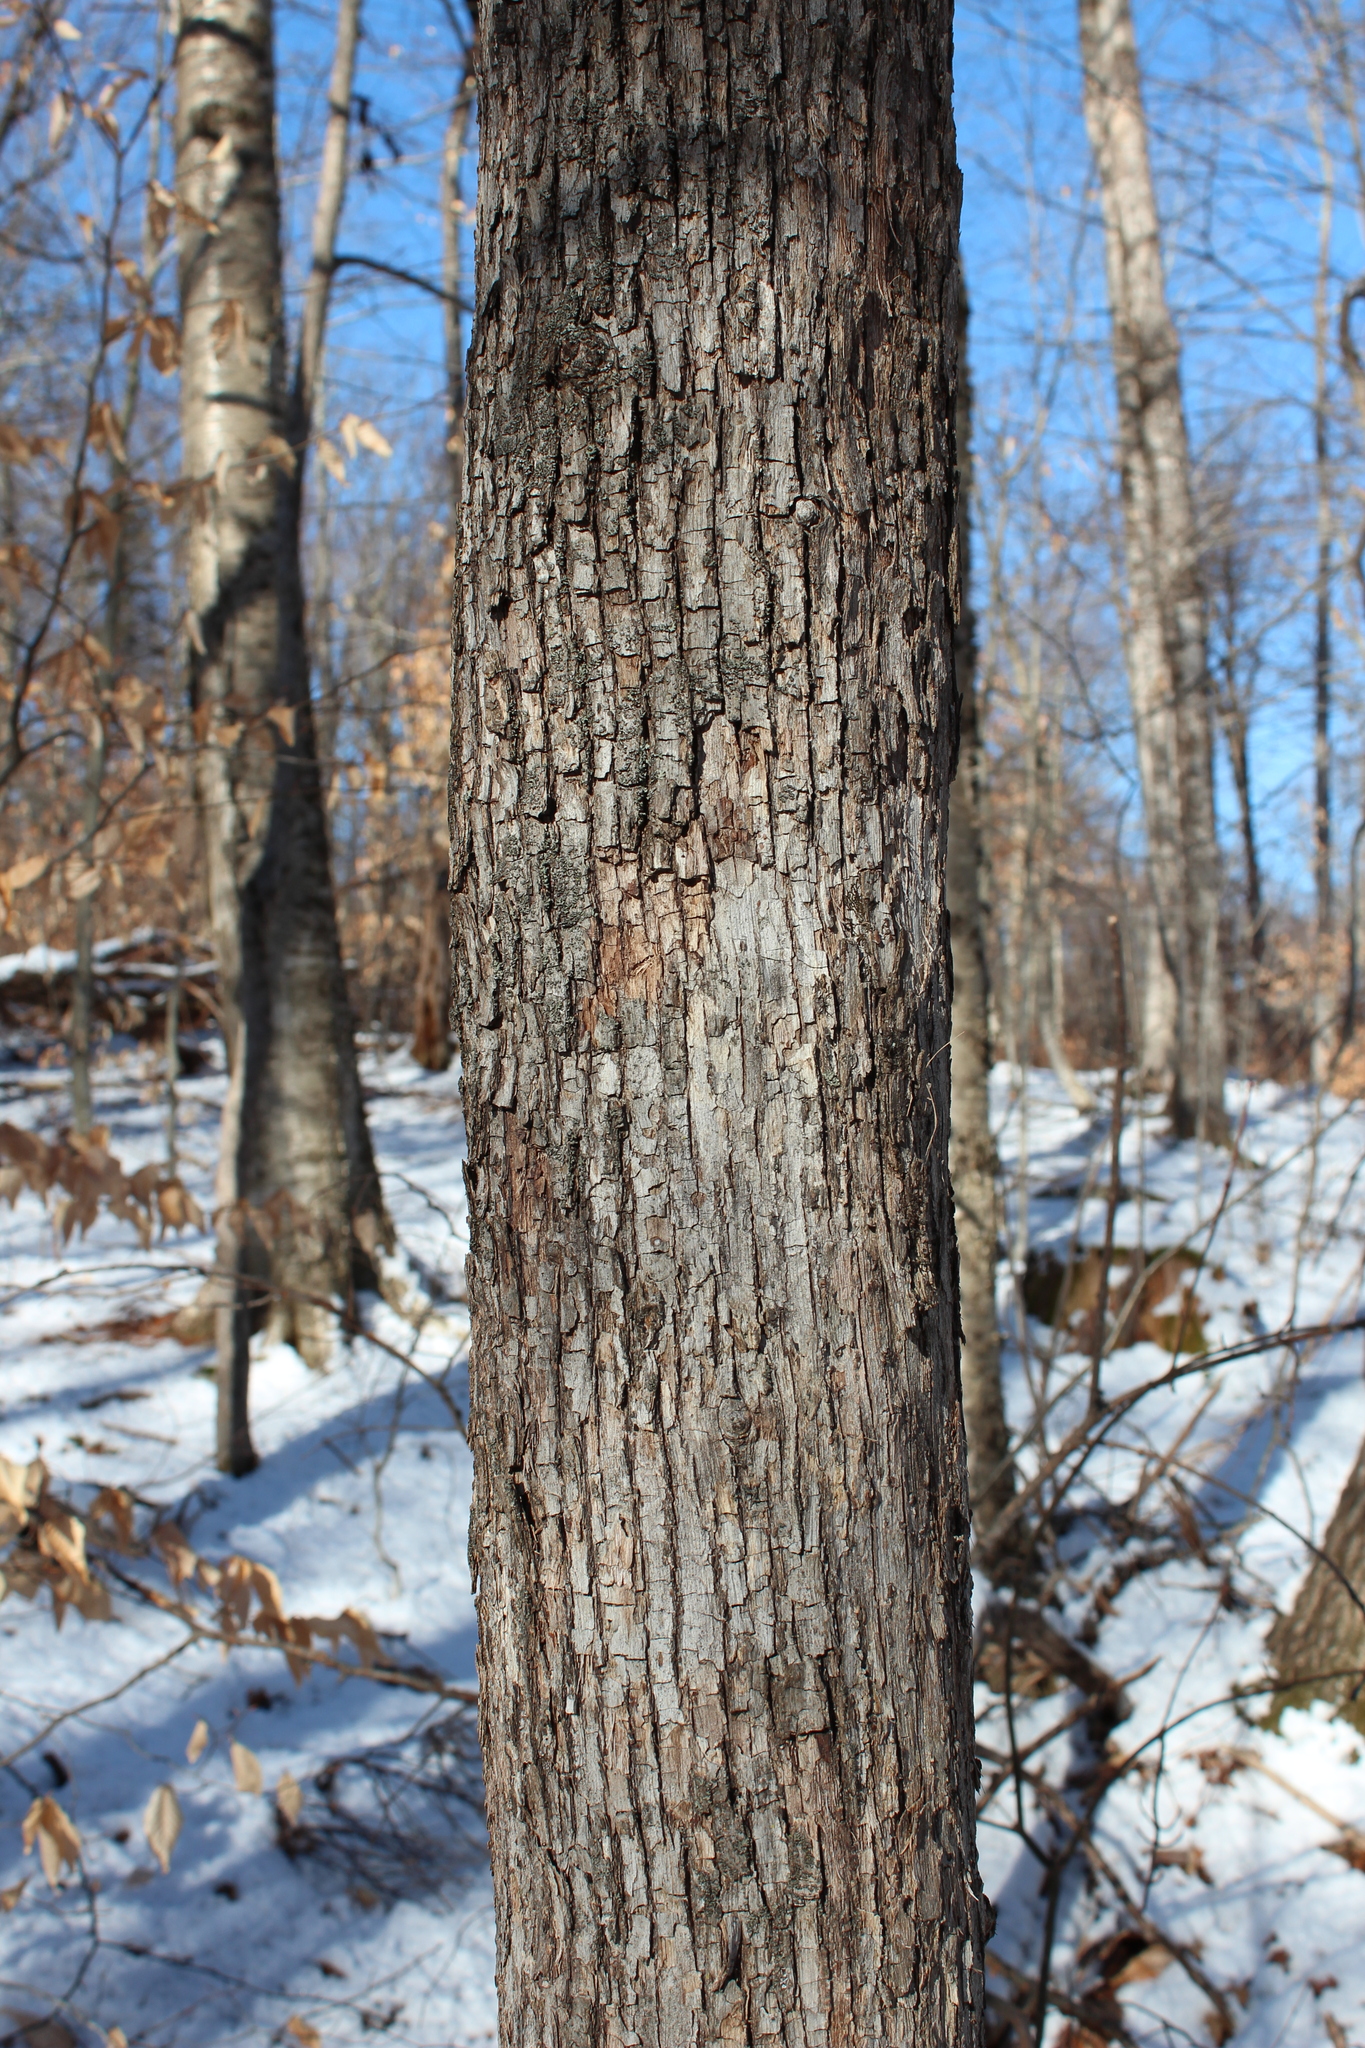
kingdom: Plantae
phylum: Tracheophyta
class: Magnoliopsida
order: Fagales
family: Betulaceae
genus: Ostrya
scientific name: Ostrya virginiana
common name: Ironwood
